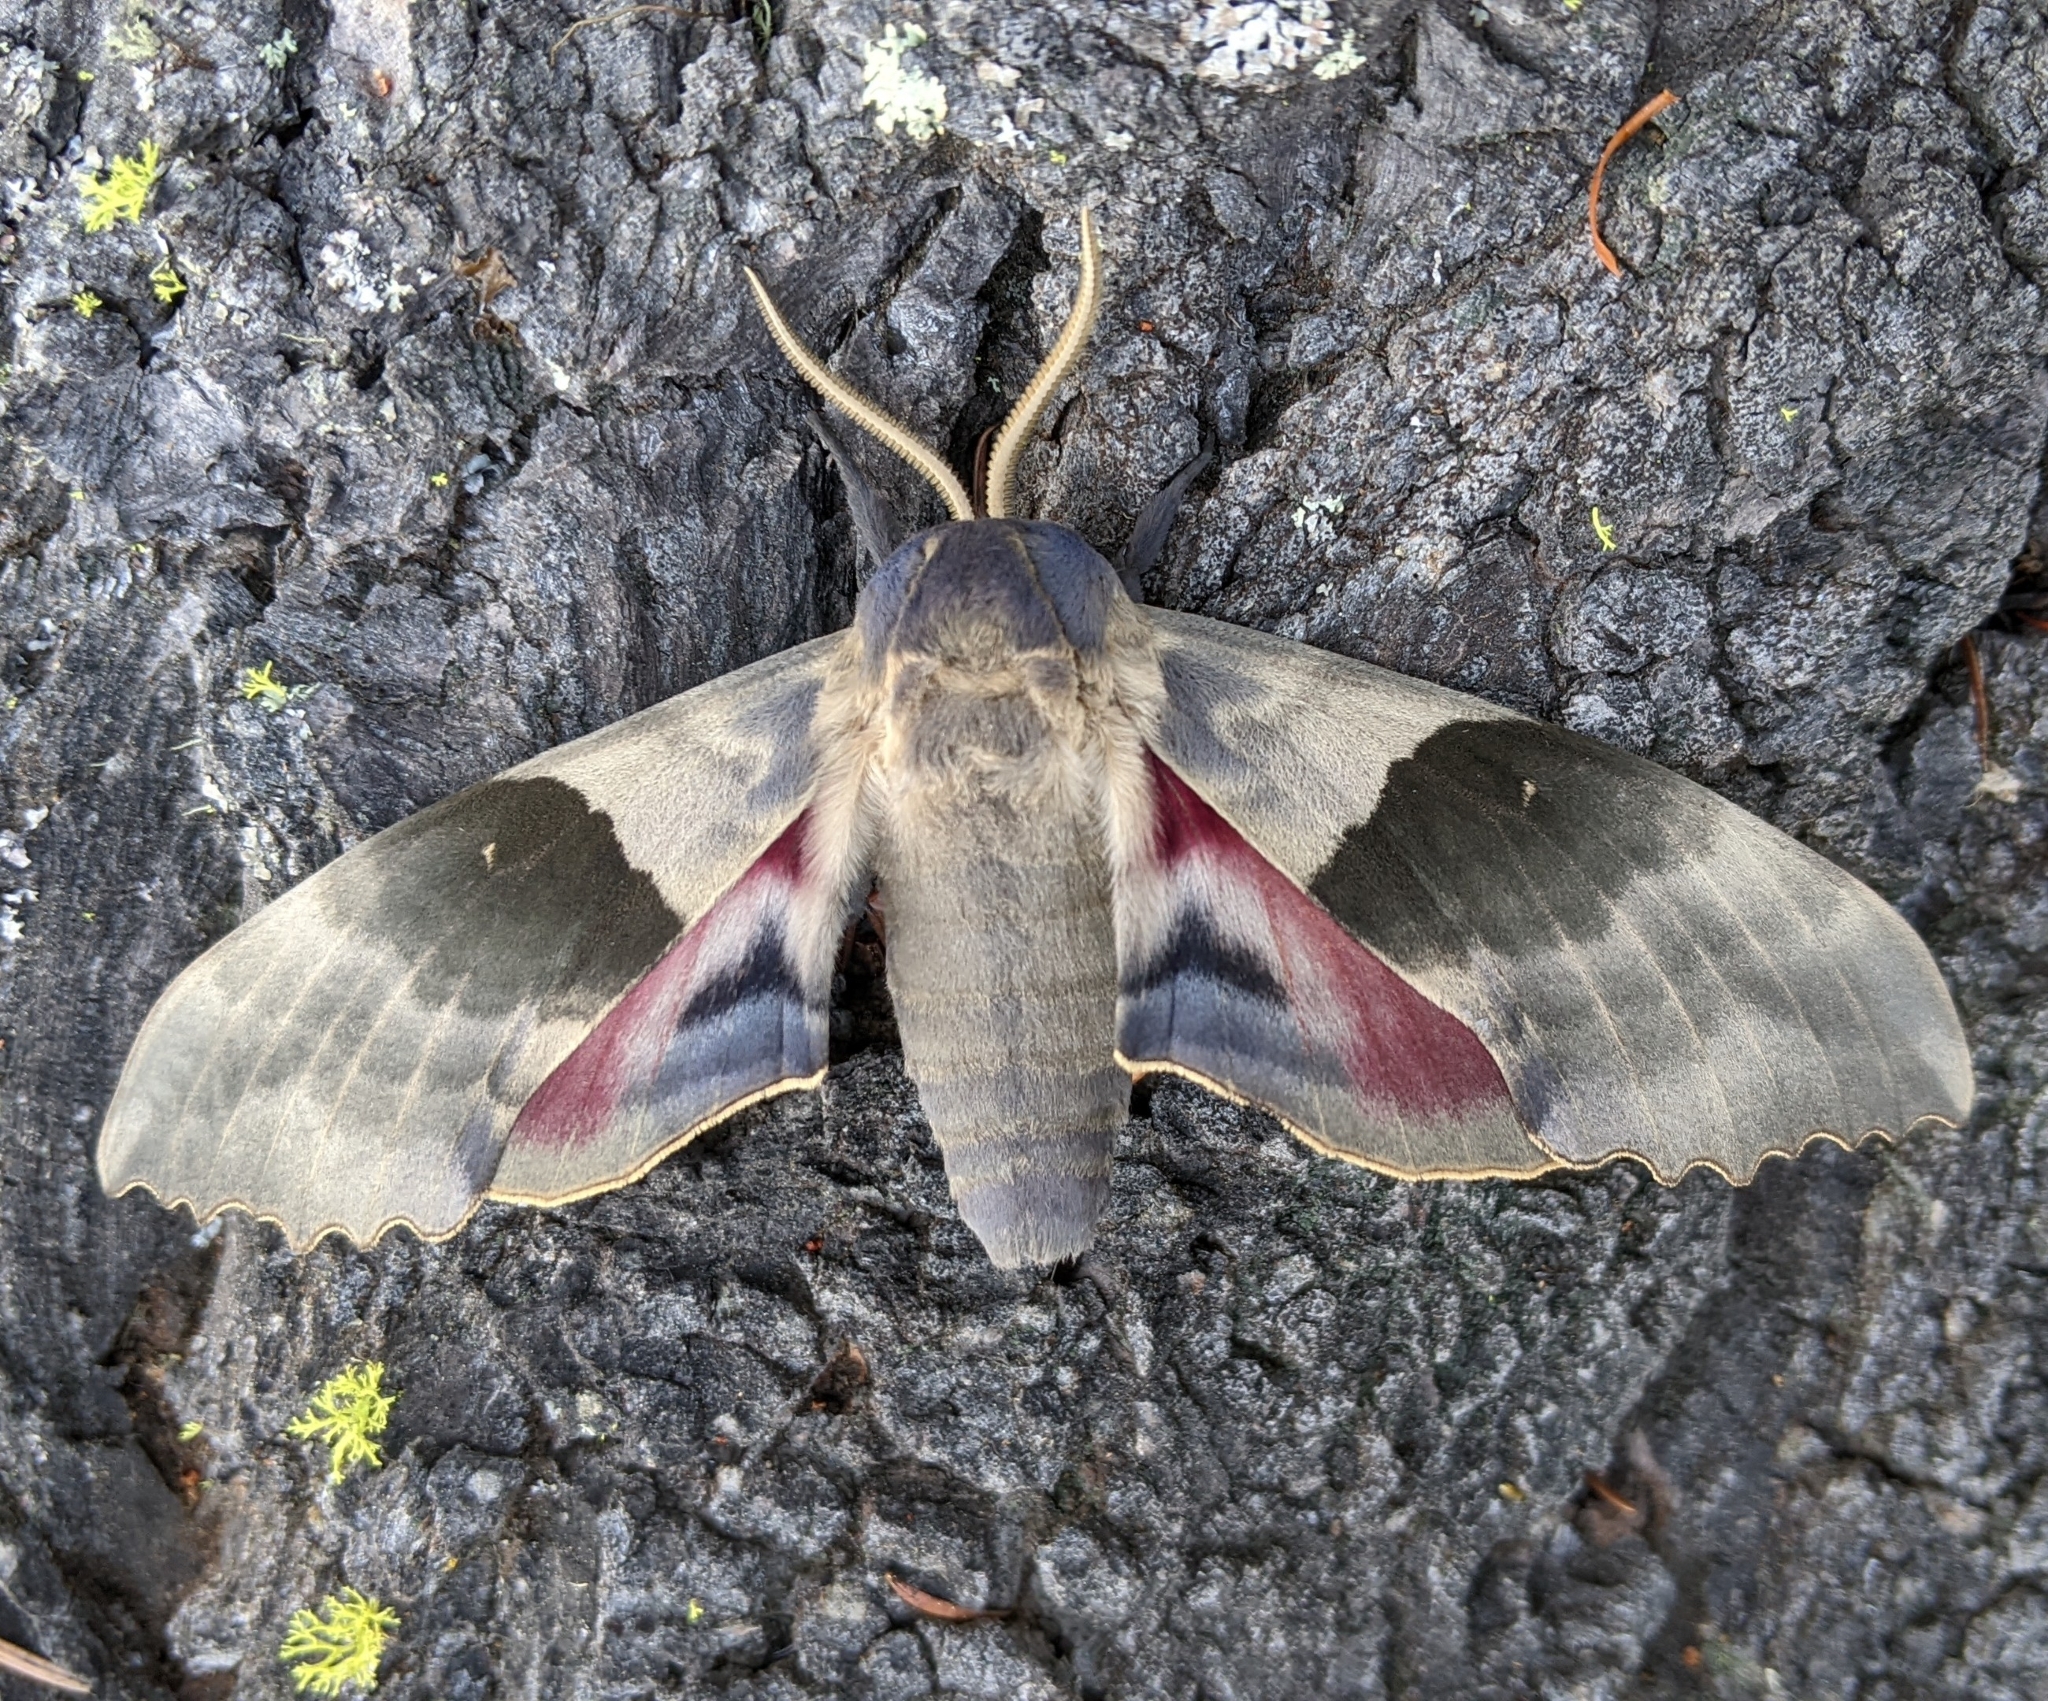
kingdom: Animalia
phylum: Arthropoda
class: Insecta
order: Lepidoptera
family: Sphingidae
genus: Pachysphinx
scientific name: Pachysphinx modesta
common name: Big poplar sphinx
